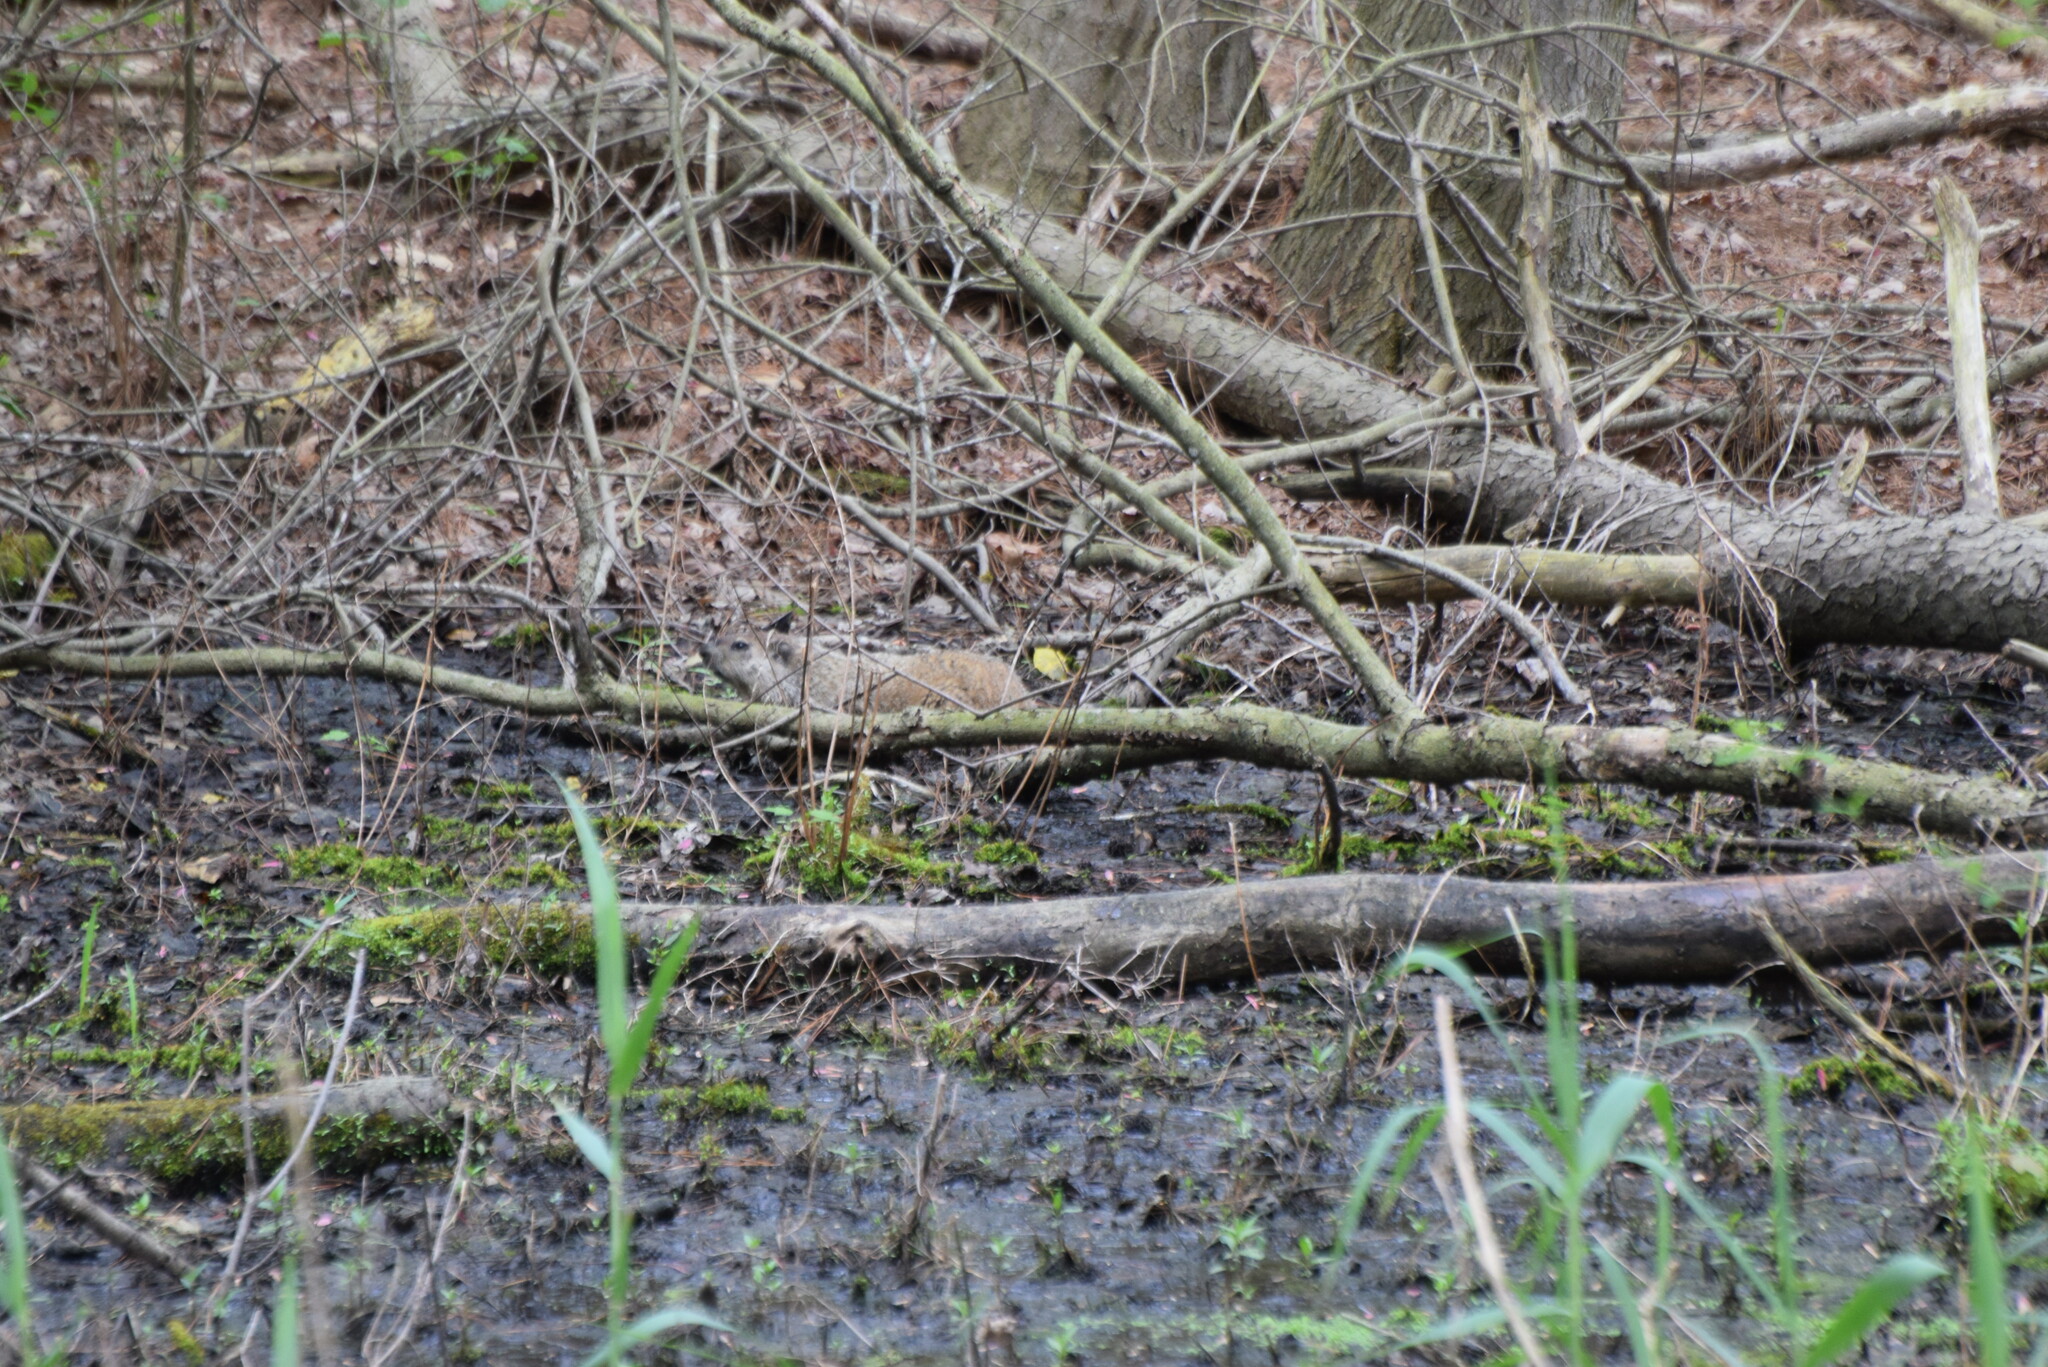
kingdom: Animalia
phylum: Chordata
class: Mammalia
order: Rodentia
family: Sciuridae
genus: Marmota
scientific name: Marmota monax
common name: Groundhog
